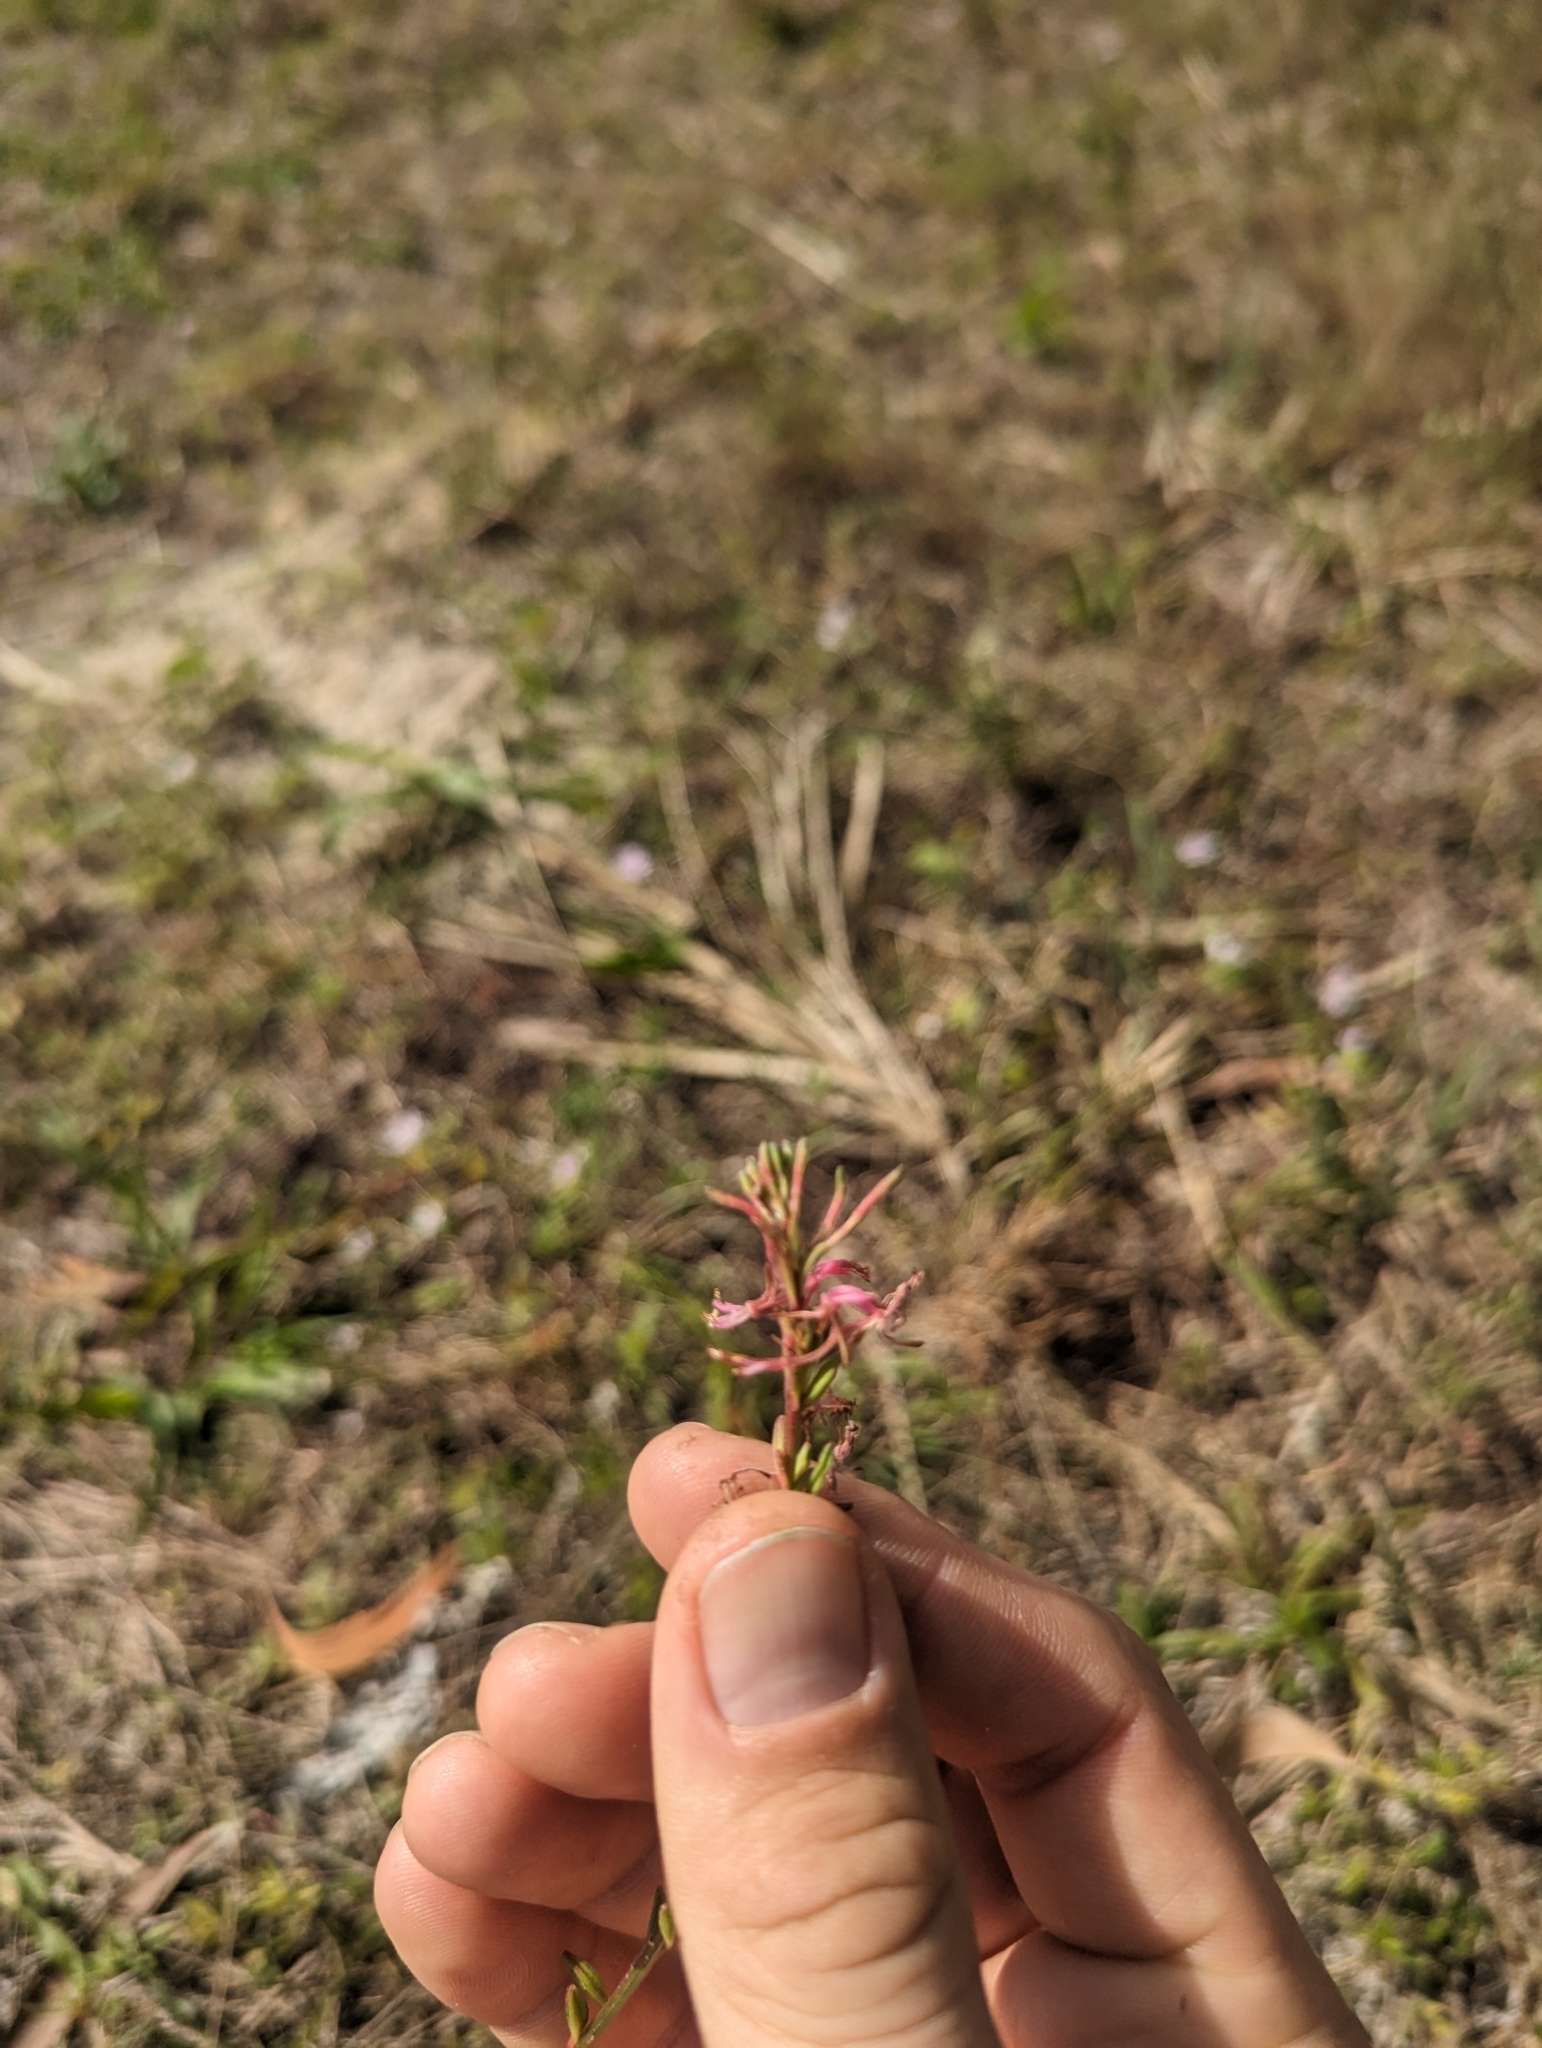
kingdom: Plantae
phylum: Tracheophyta
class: Magnoliopsida
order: Myrtales
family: Onagraceae
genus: Oenothera
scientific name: Oenothera simulans
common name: Southern beeblossom
